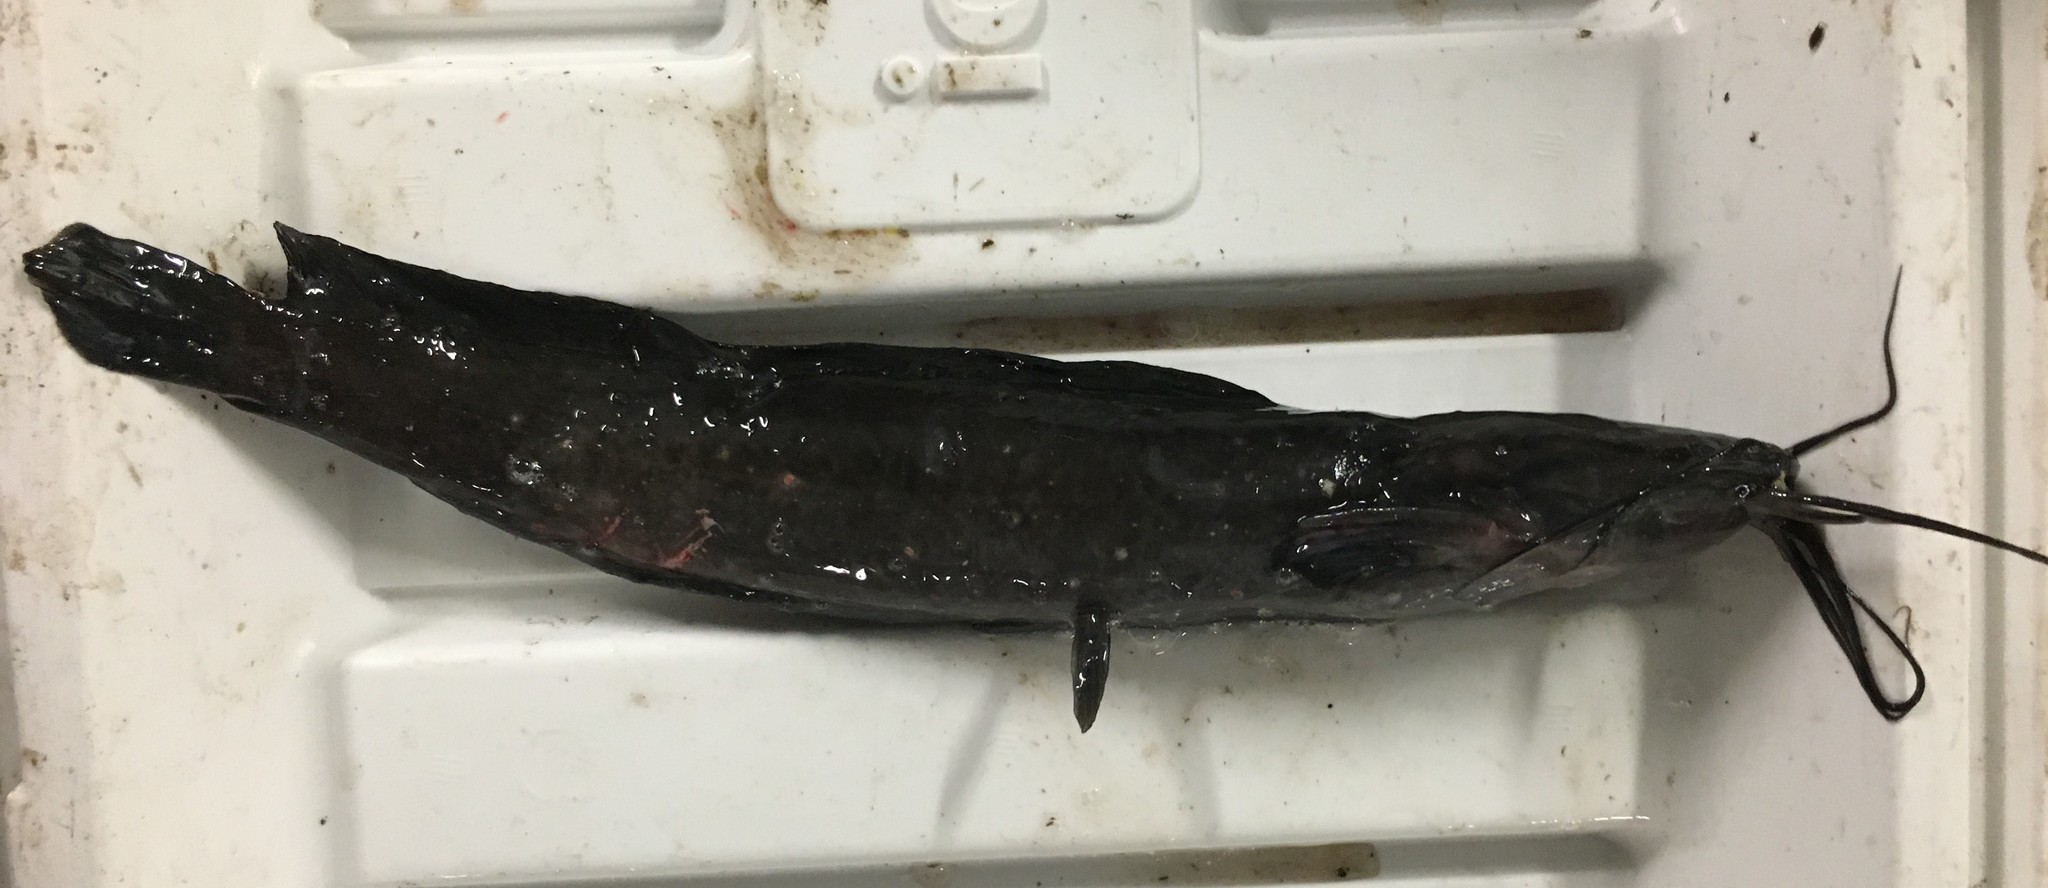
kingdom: Animalia
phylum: Chordata
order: Siluriformes
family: Clariidae
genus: Clarias
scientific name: Clarias batrachus
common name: Walking catfish
